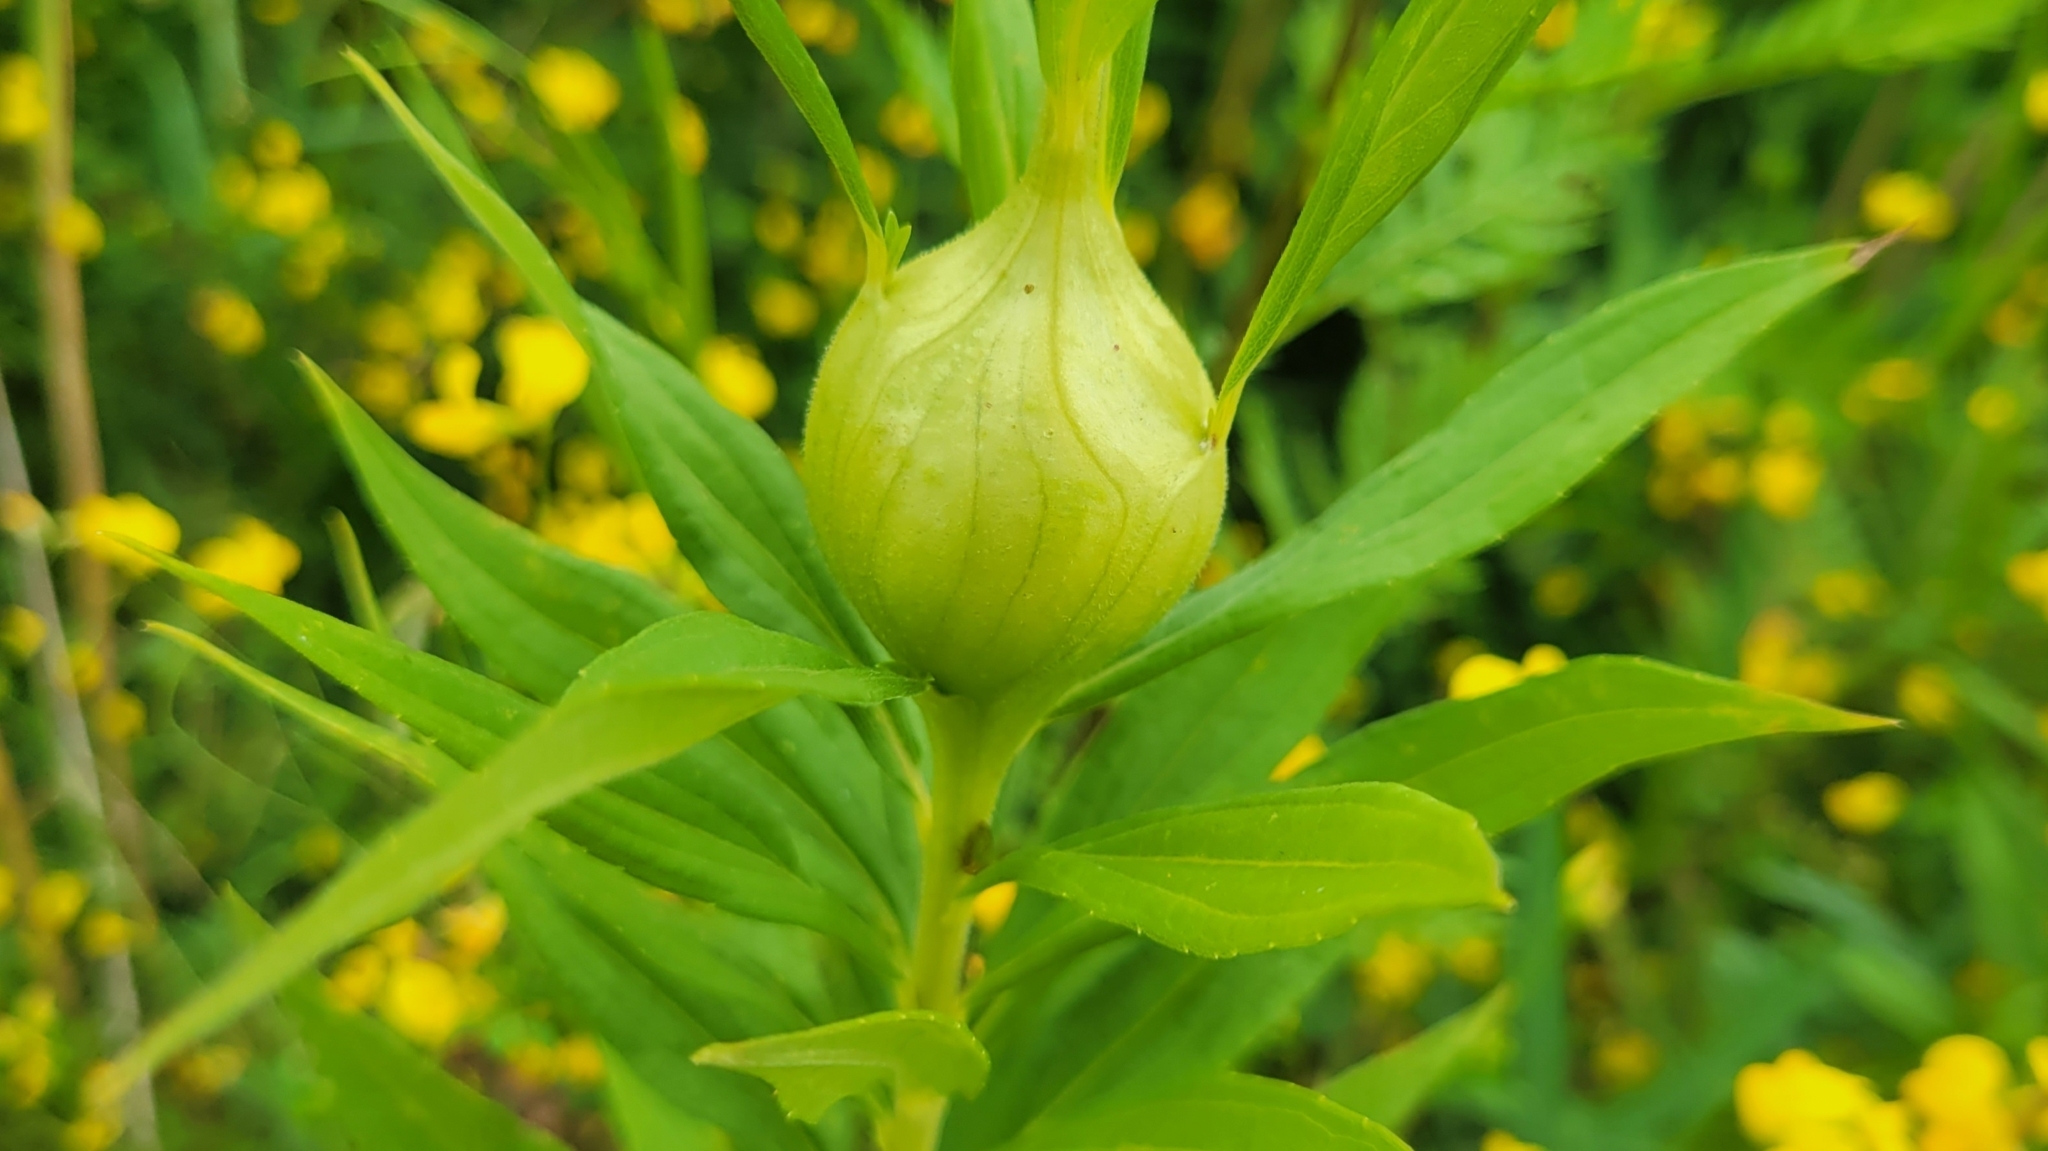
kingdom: Animalia
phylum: Arthropoda
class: Insecta
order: Diptera
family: Tephritidae
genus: Eurosta
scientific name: Eurosta solidaginis
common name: Goldenrod gall fly
